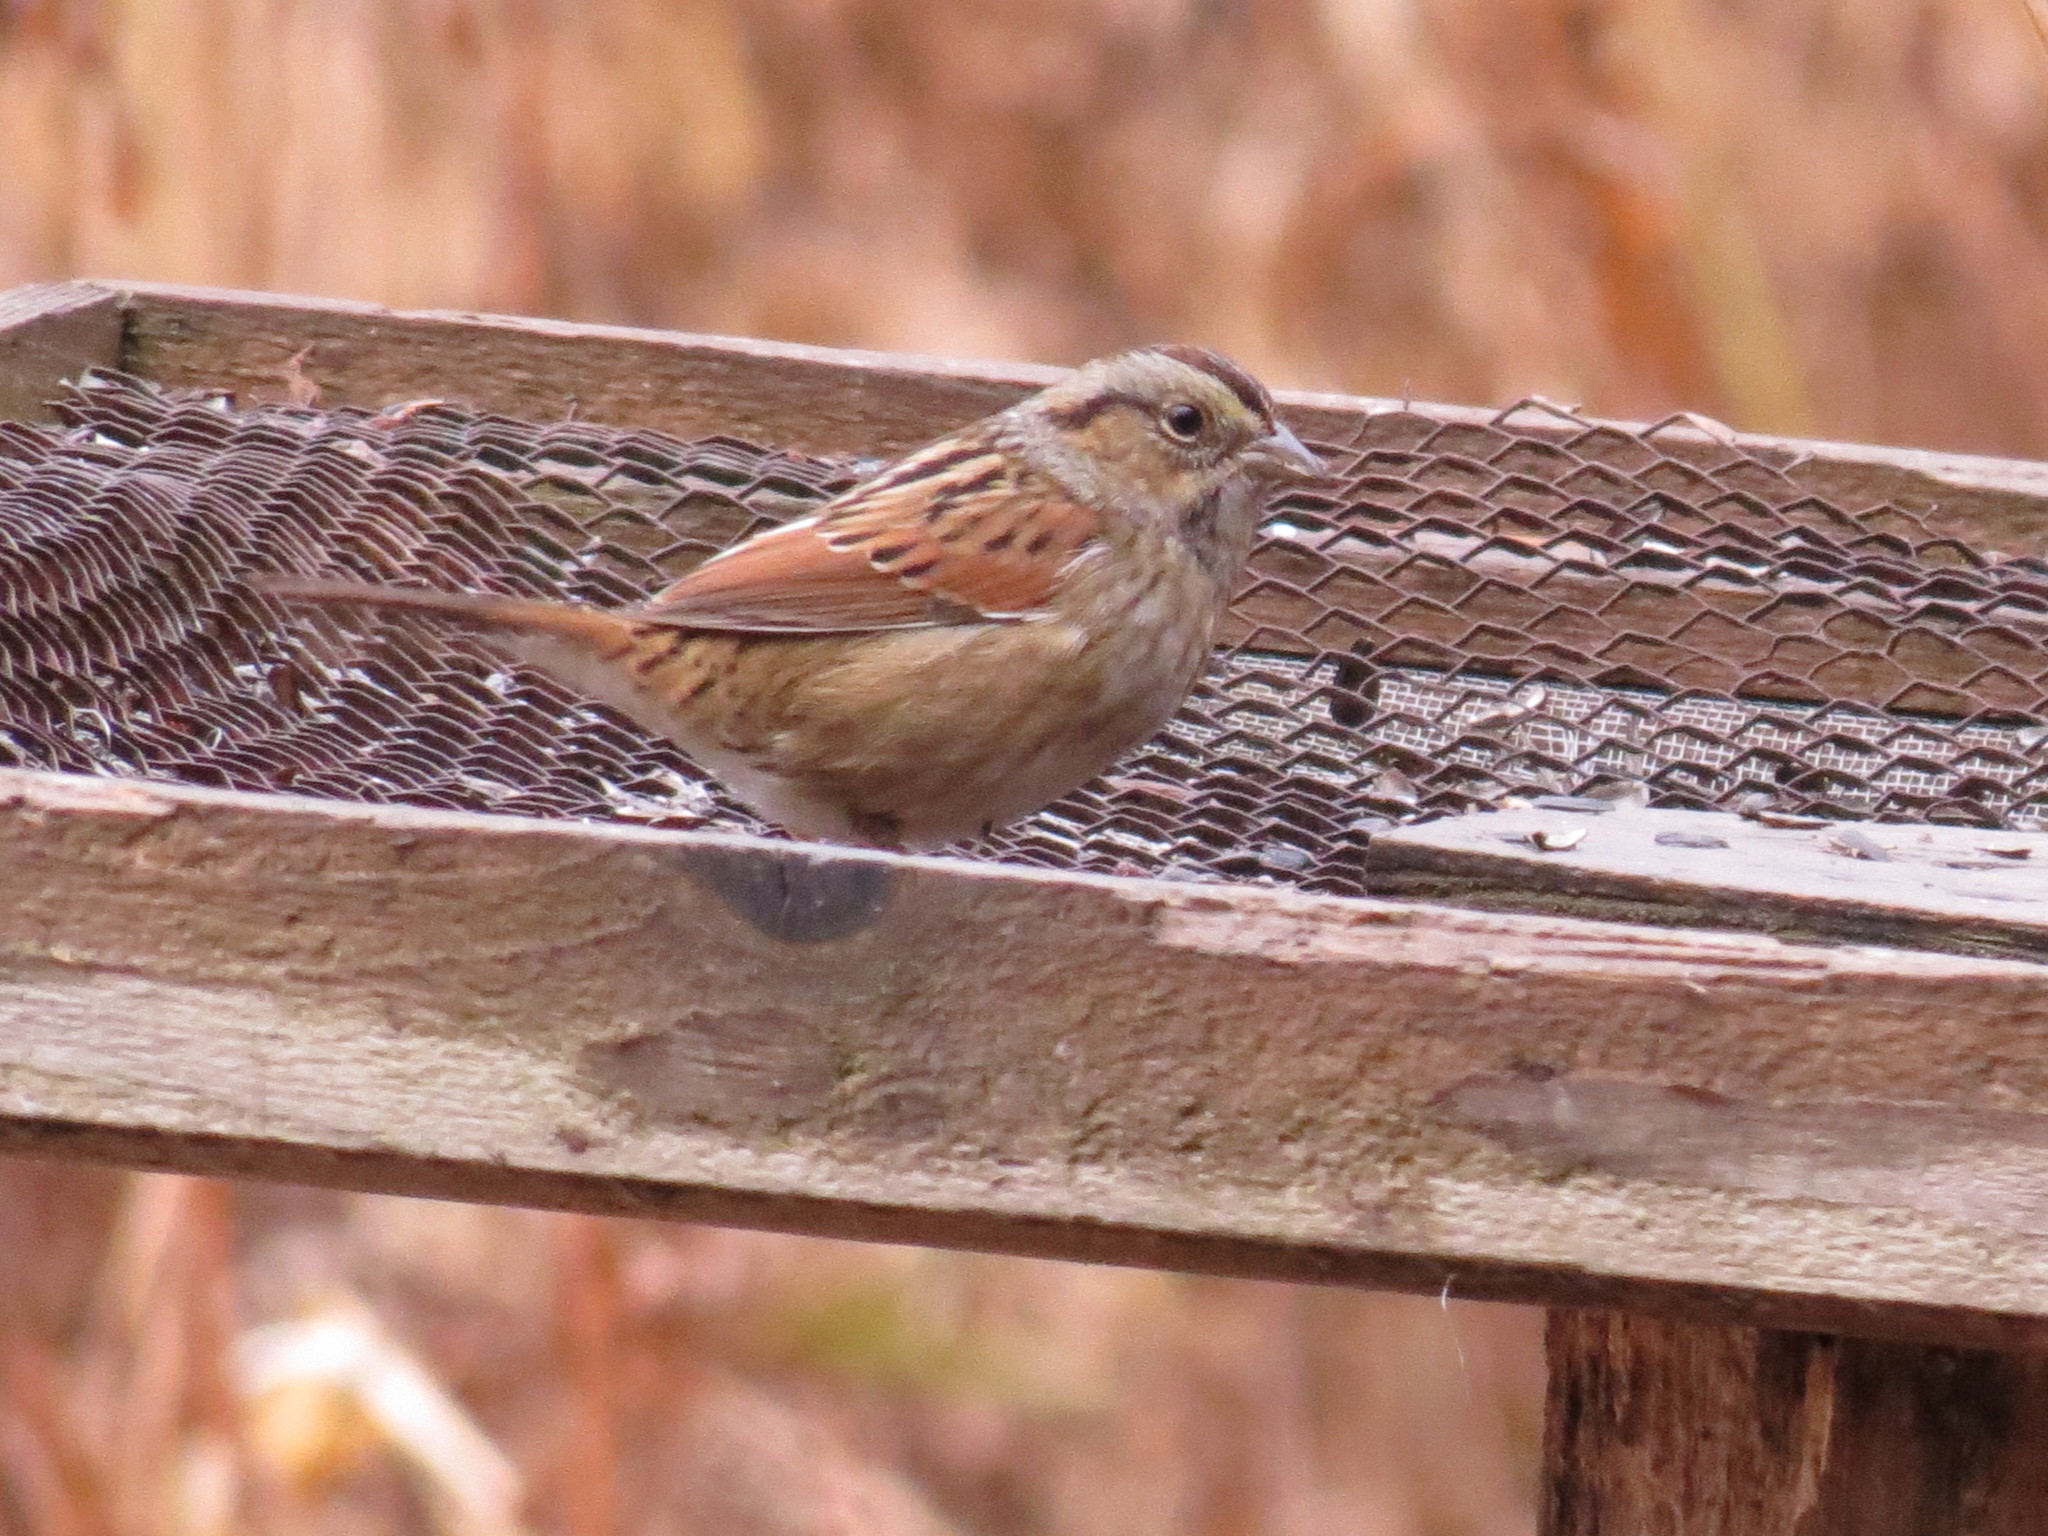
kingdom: Animalia
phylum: Chordata
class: Aves
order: Passeriformes
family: Passerellidae
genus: Melospiza
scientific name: Melospiza georgiana
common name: Swamp sparrow
